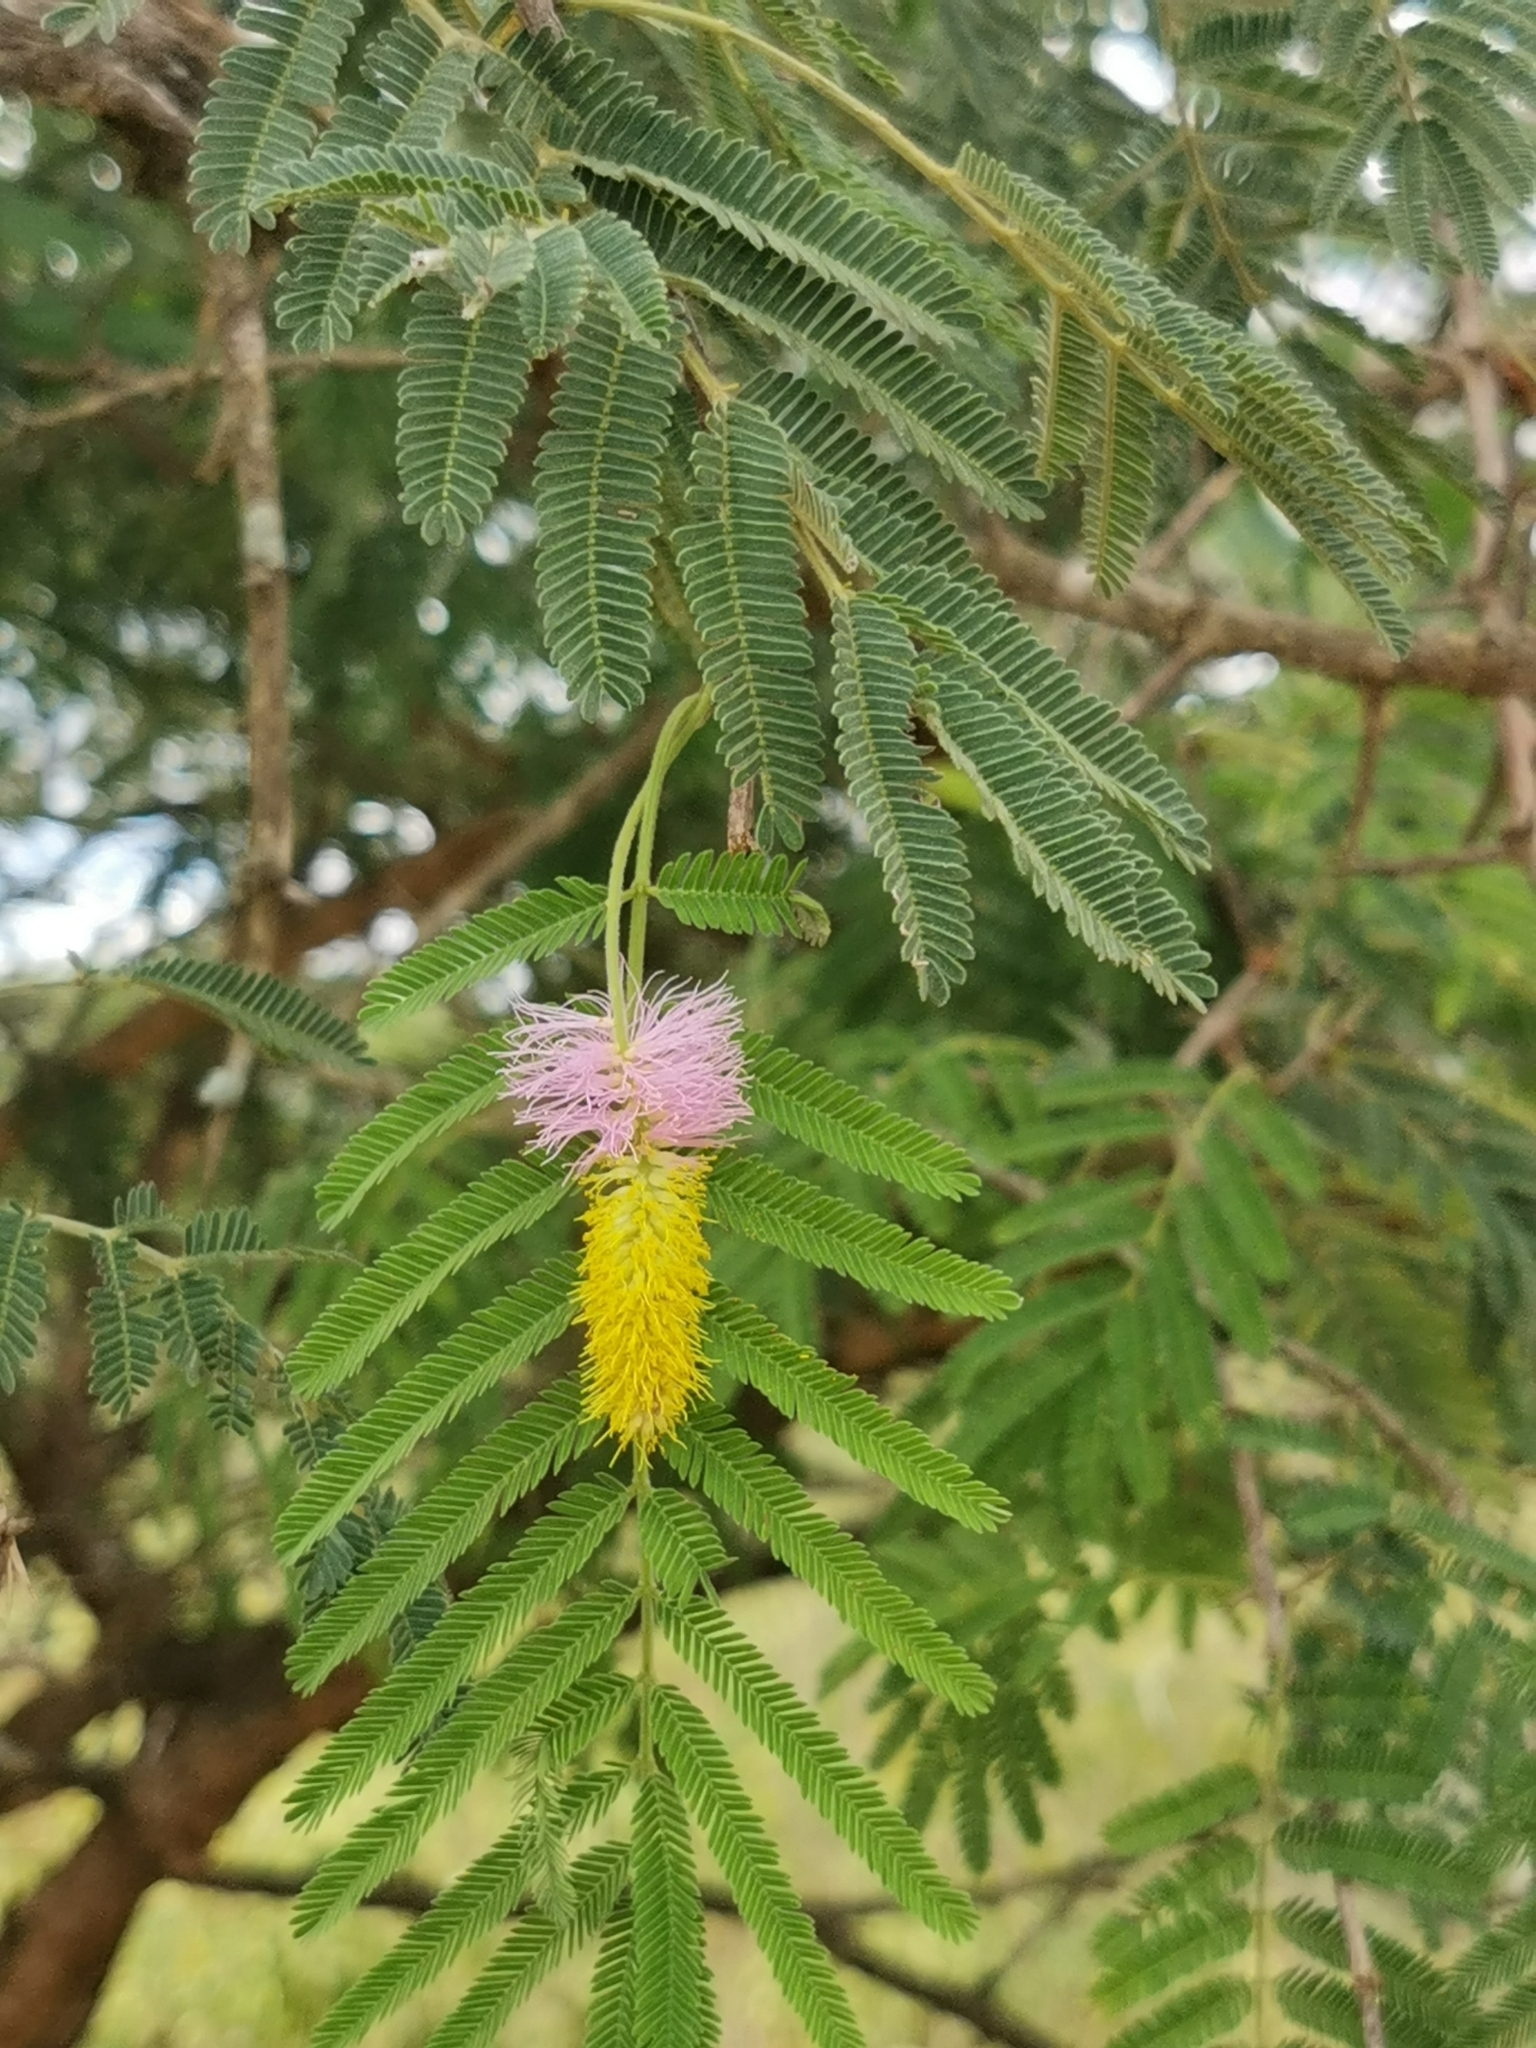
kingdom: Plantae
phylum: Tracheophyta
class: Magnoliopsida
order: Fabales
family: Fabaceae
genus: Dichrostachys
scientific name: Dichrostachys cinerea
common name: Sicklebush
